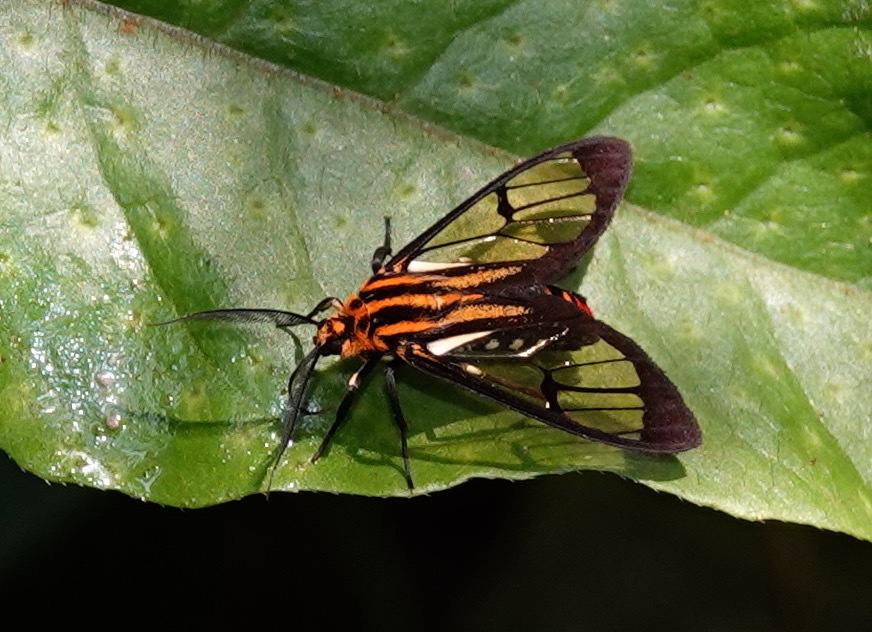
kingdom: Animalia
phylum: Arthropoda
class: Insecta
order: Lepidoptera
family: Erebidae
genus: Paraethria
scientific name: Paraethria flavosignata
